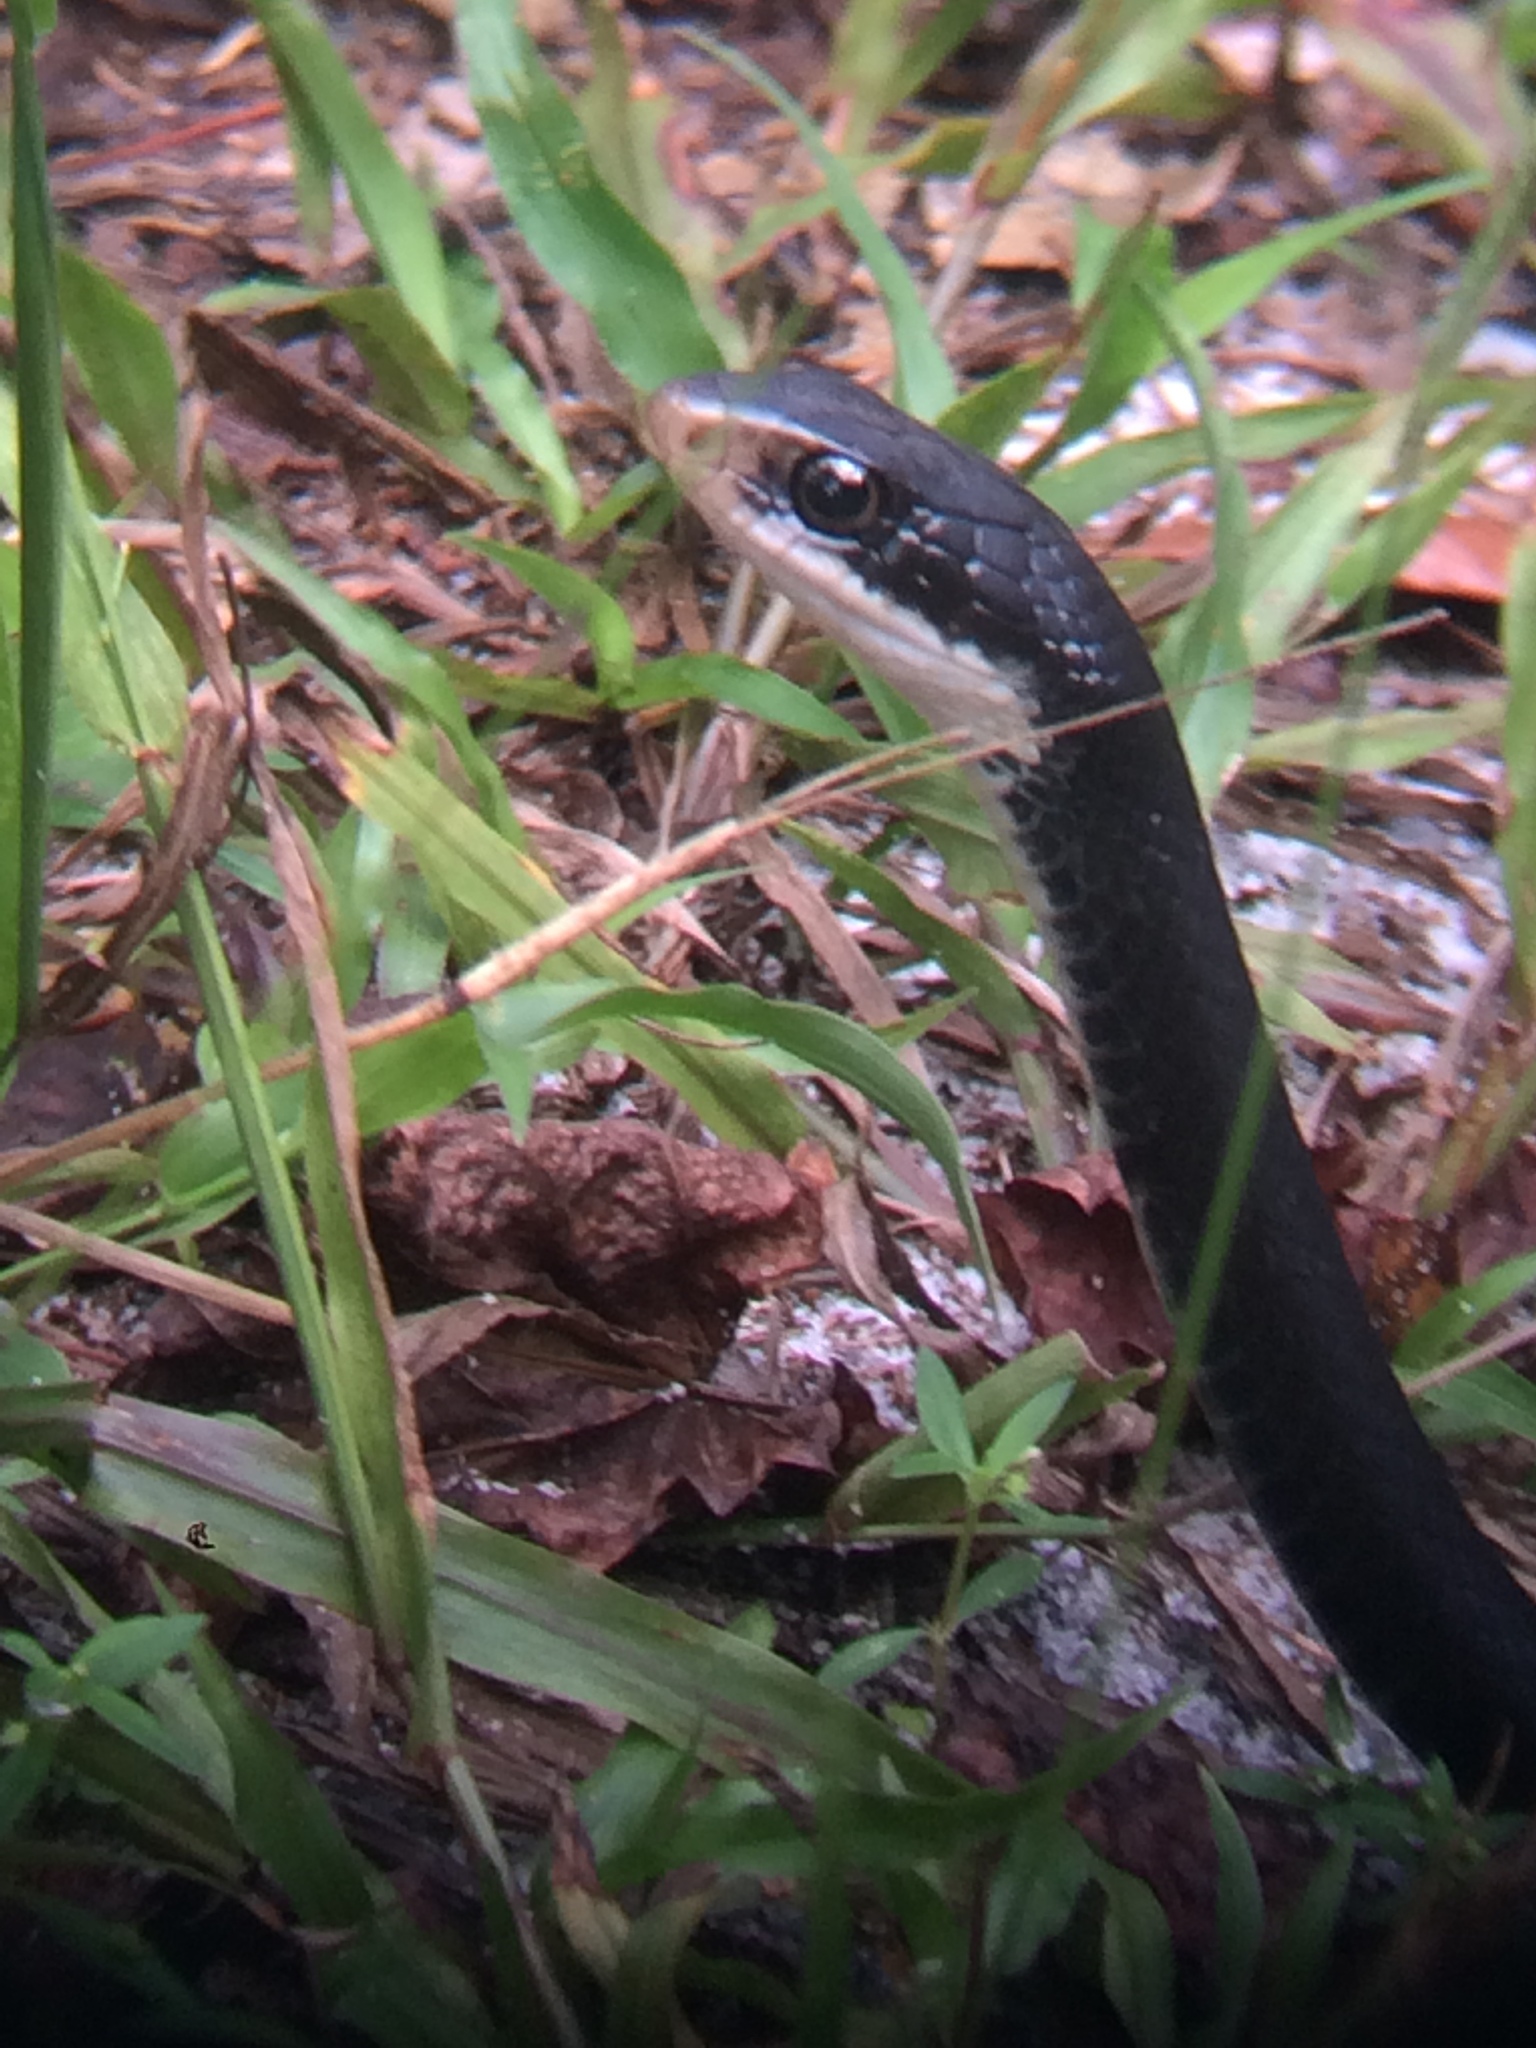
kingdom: Animalia
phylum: Chordata
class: Squamata
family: Colubridae
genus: Coluber
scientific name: Coluber constrictor
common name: Eastern racer
